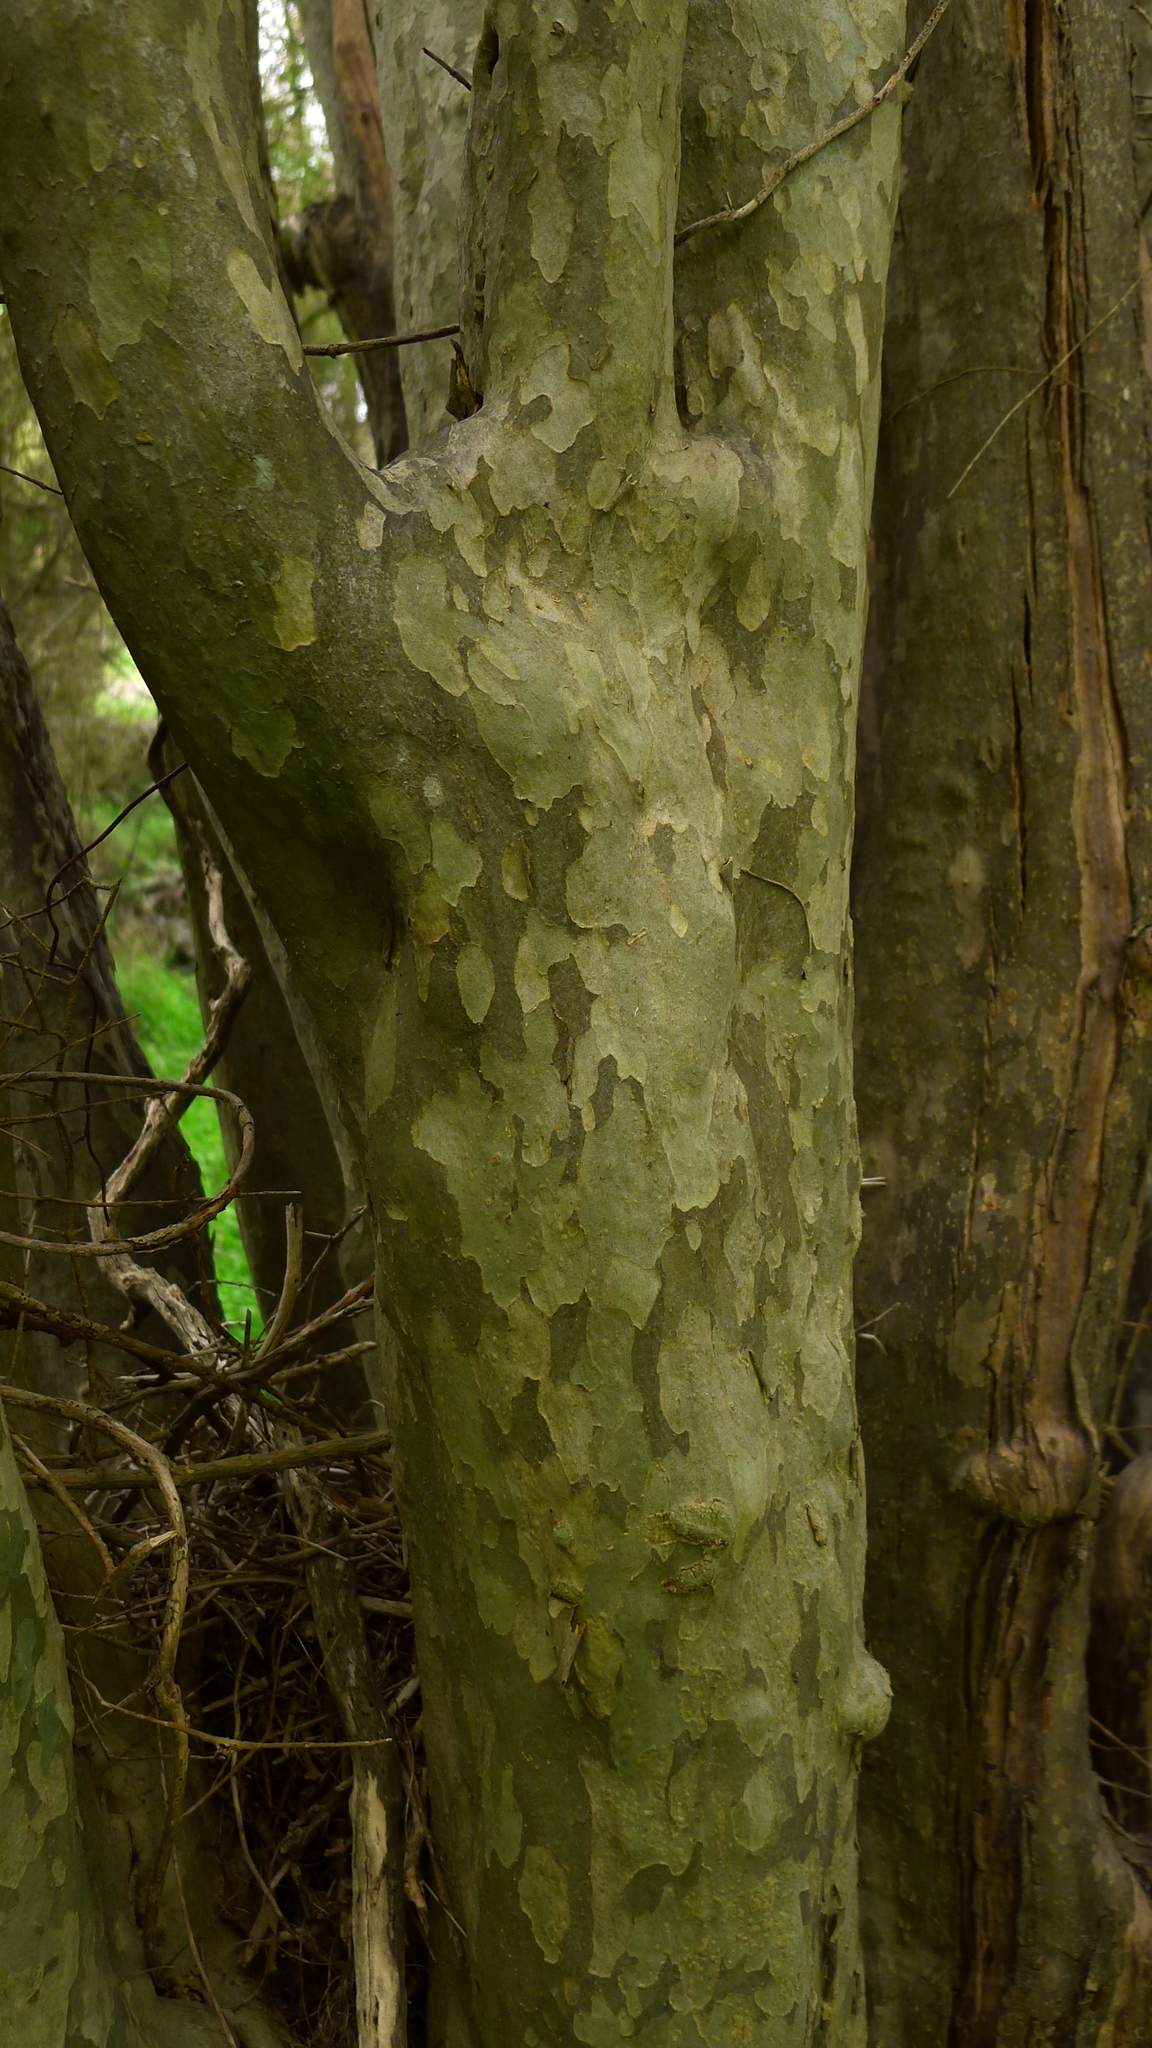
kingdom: Plantae
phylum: Tracheophyta
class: Magnoliopsida
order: Gentianales
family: Rubiaceae
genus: Coprosma
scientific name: Coprosma virescens
